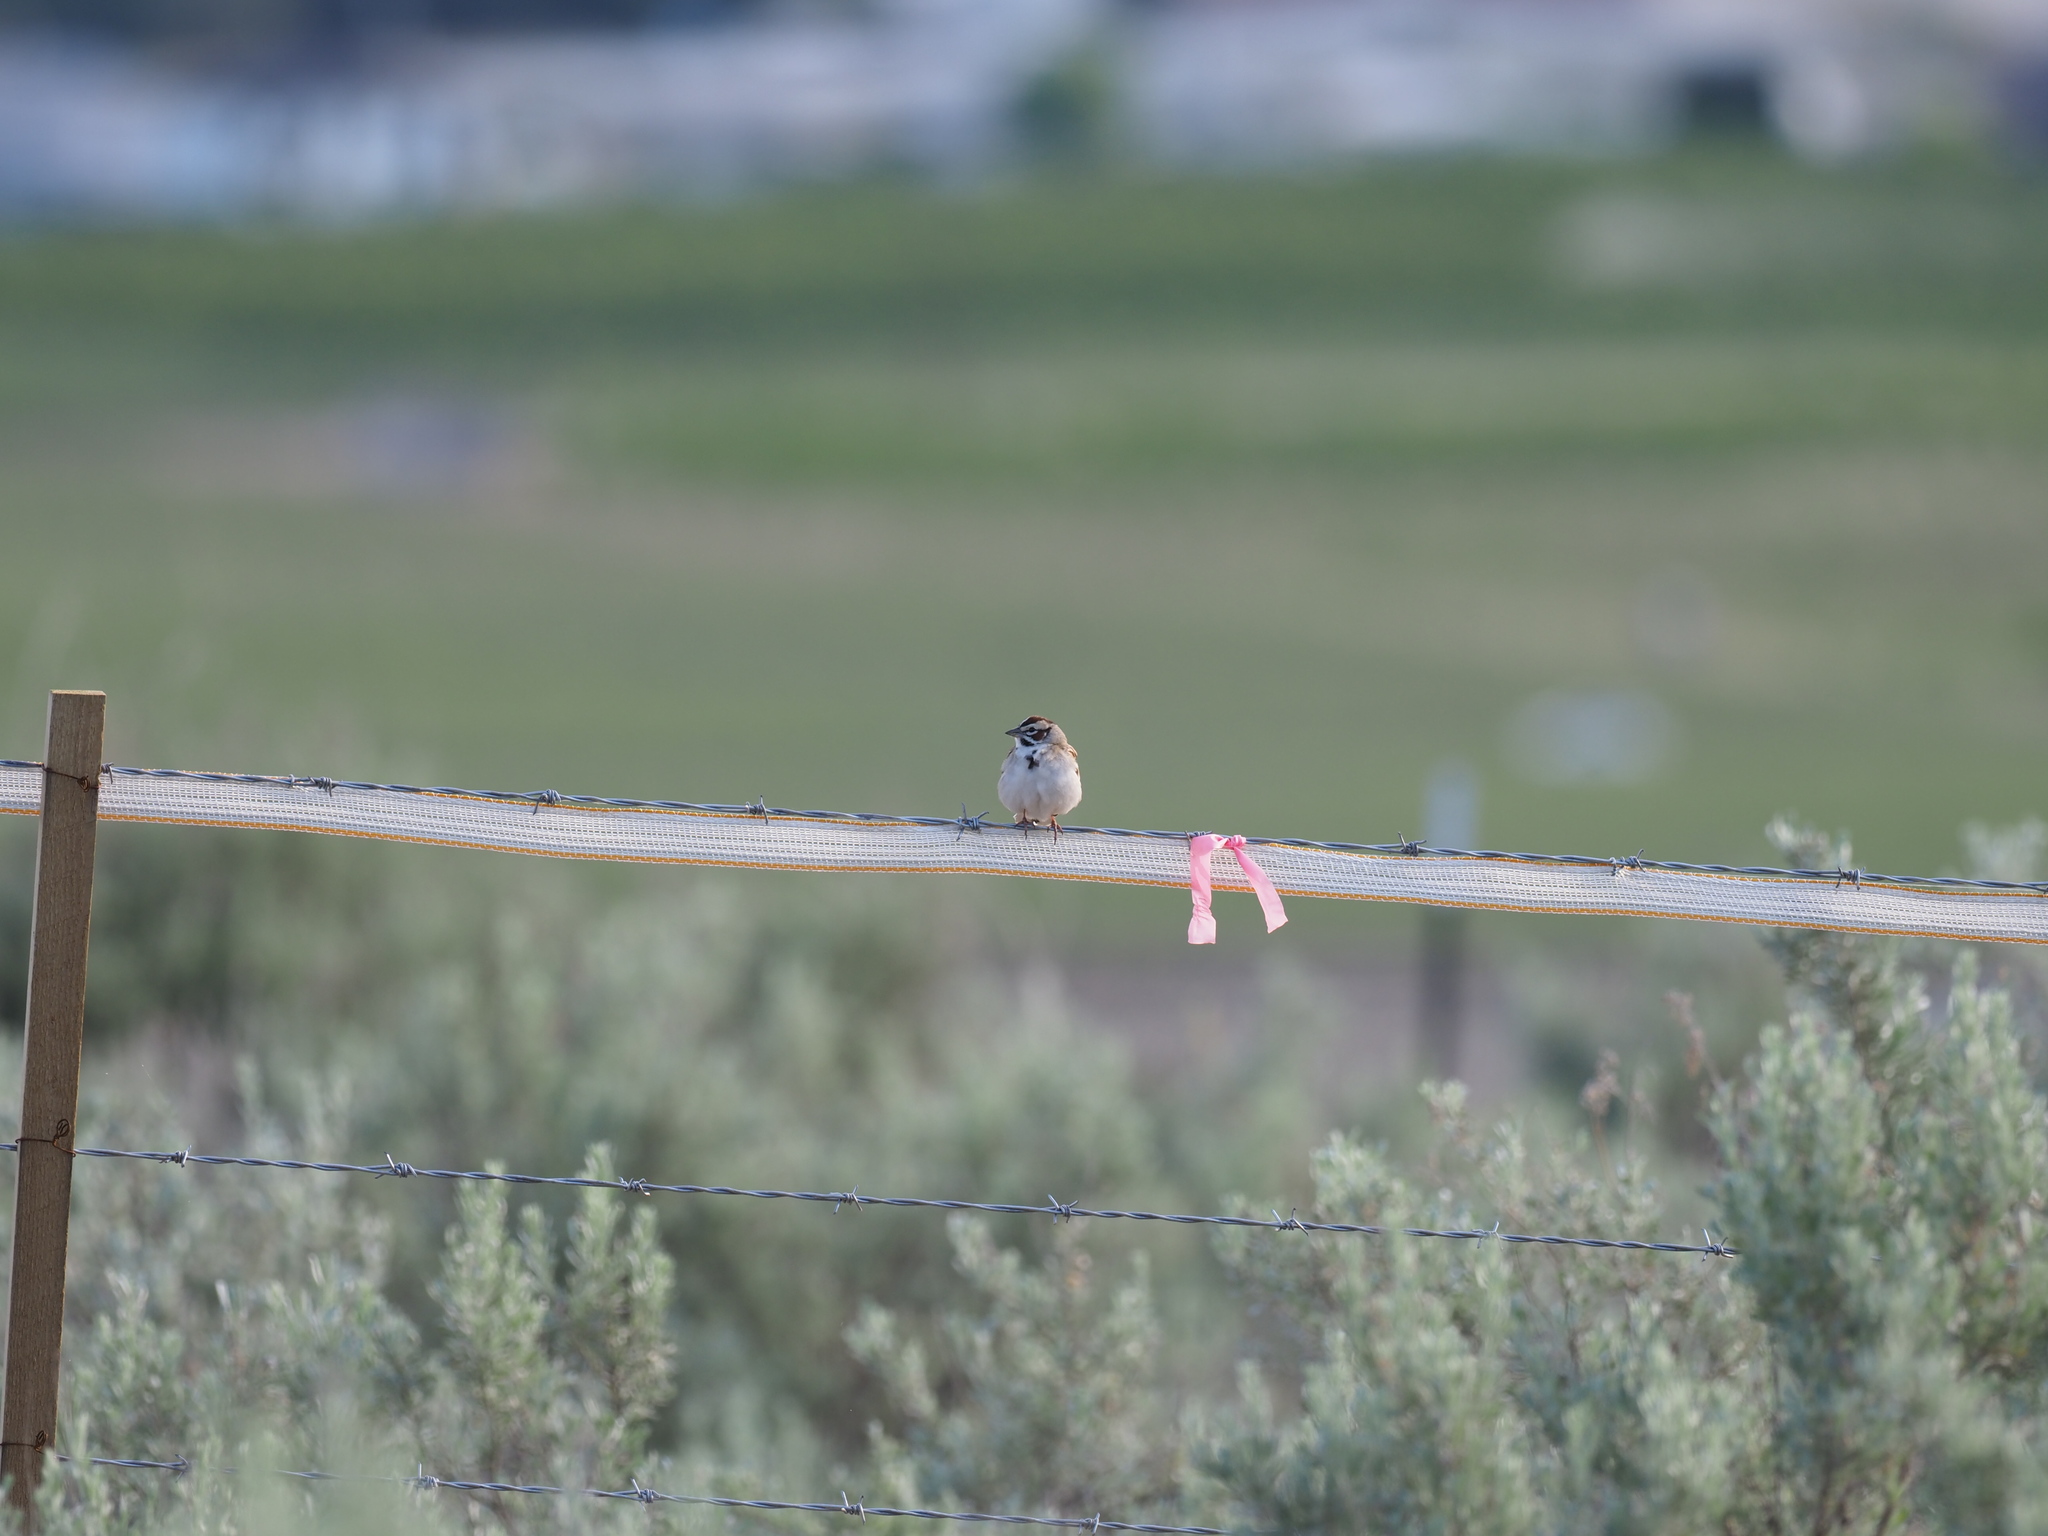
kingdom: Animalia
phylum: Chordata
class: Aves
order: Passeriformes
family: Passerellidae
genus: Chondestes
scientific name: Chondestes grammacus
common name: Lark sparrow
